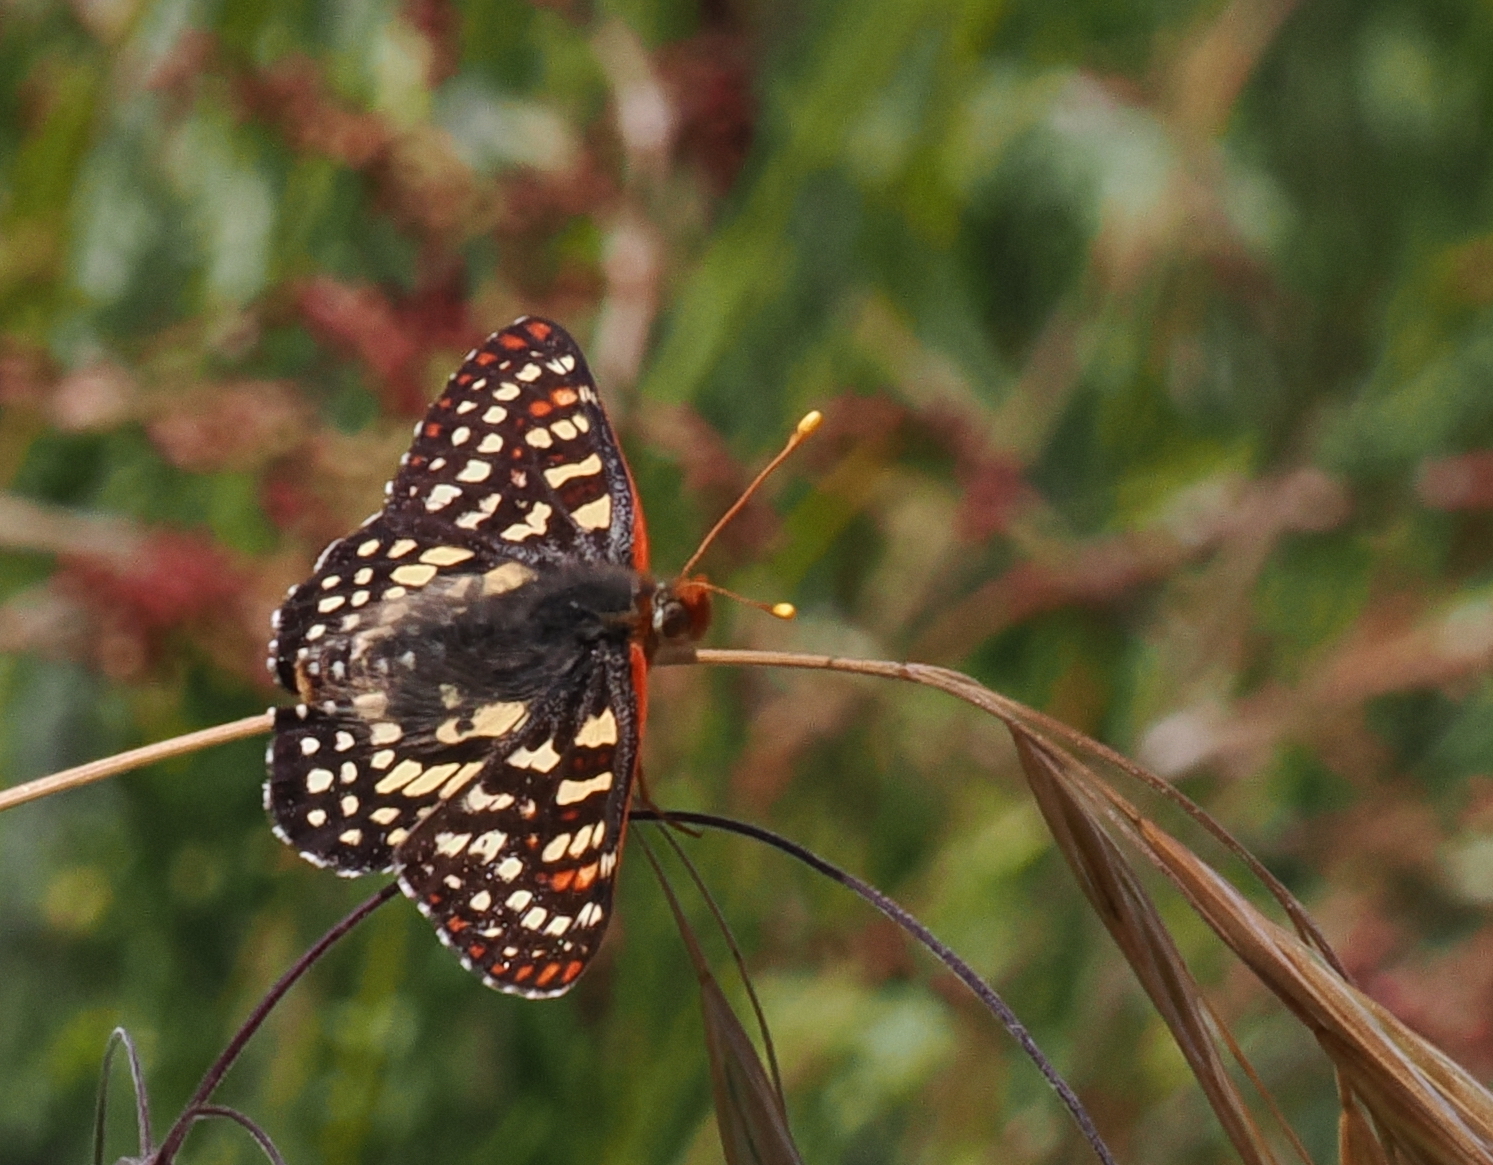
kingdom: Animalia
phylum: Arthropoda
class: Insecta
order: Lepidoptera
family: Nymphalidae
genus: Occidryas
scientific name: Occidryas chalcedona
